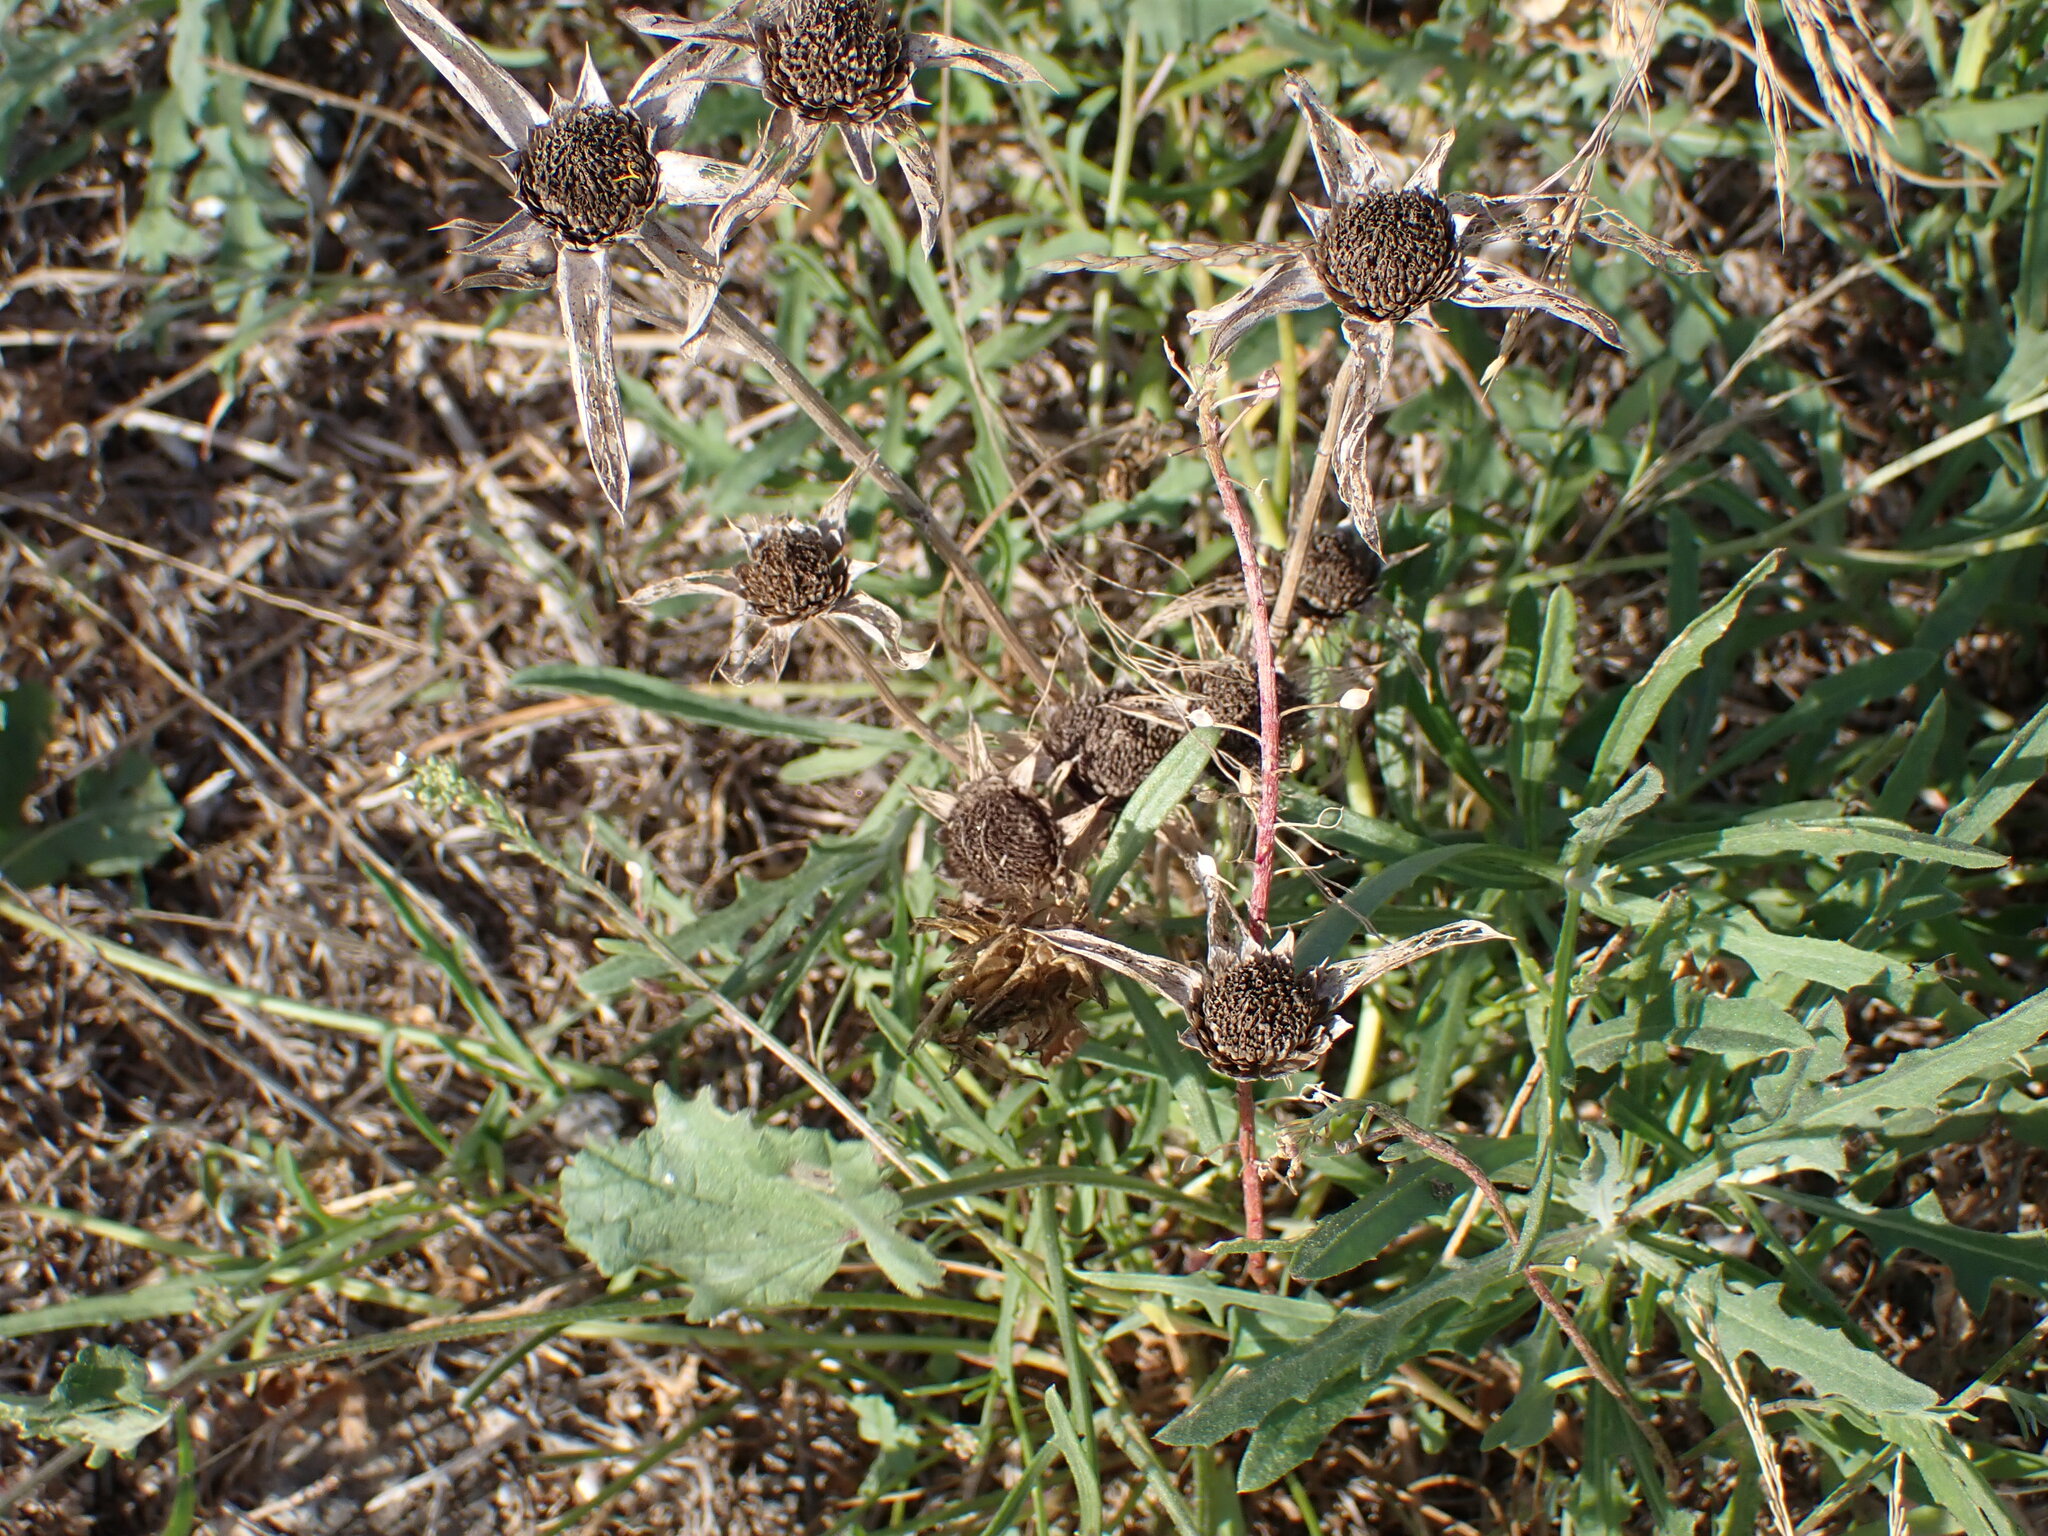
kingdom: Plantae
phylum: Tracheophyta
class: Magnoliopsida
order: Asterales
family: Asteraceae
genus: Pallenis
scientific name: Pallenis spinosa
